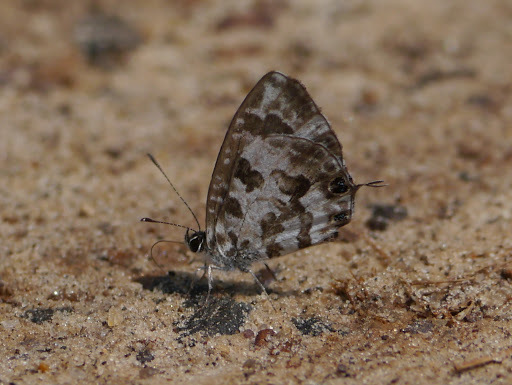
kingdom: Animalia
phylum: Arthropoda
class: Insecta
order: Lepidoptera
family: Lycaenidae
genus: Cacyreus
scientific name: Cacyreus lingeus
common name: Bush bronze
